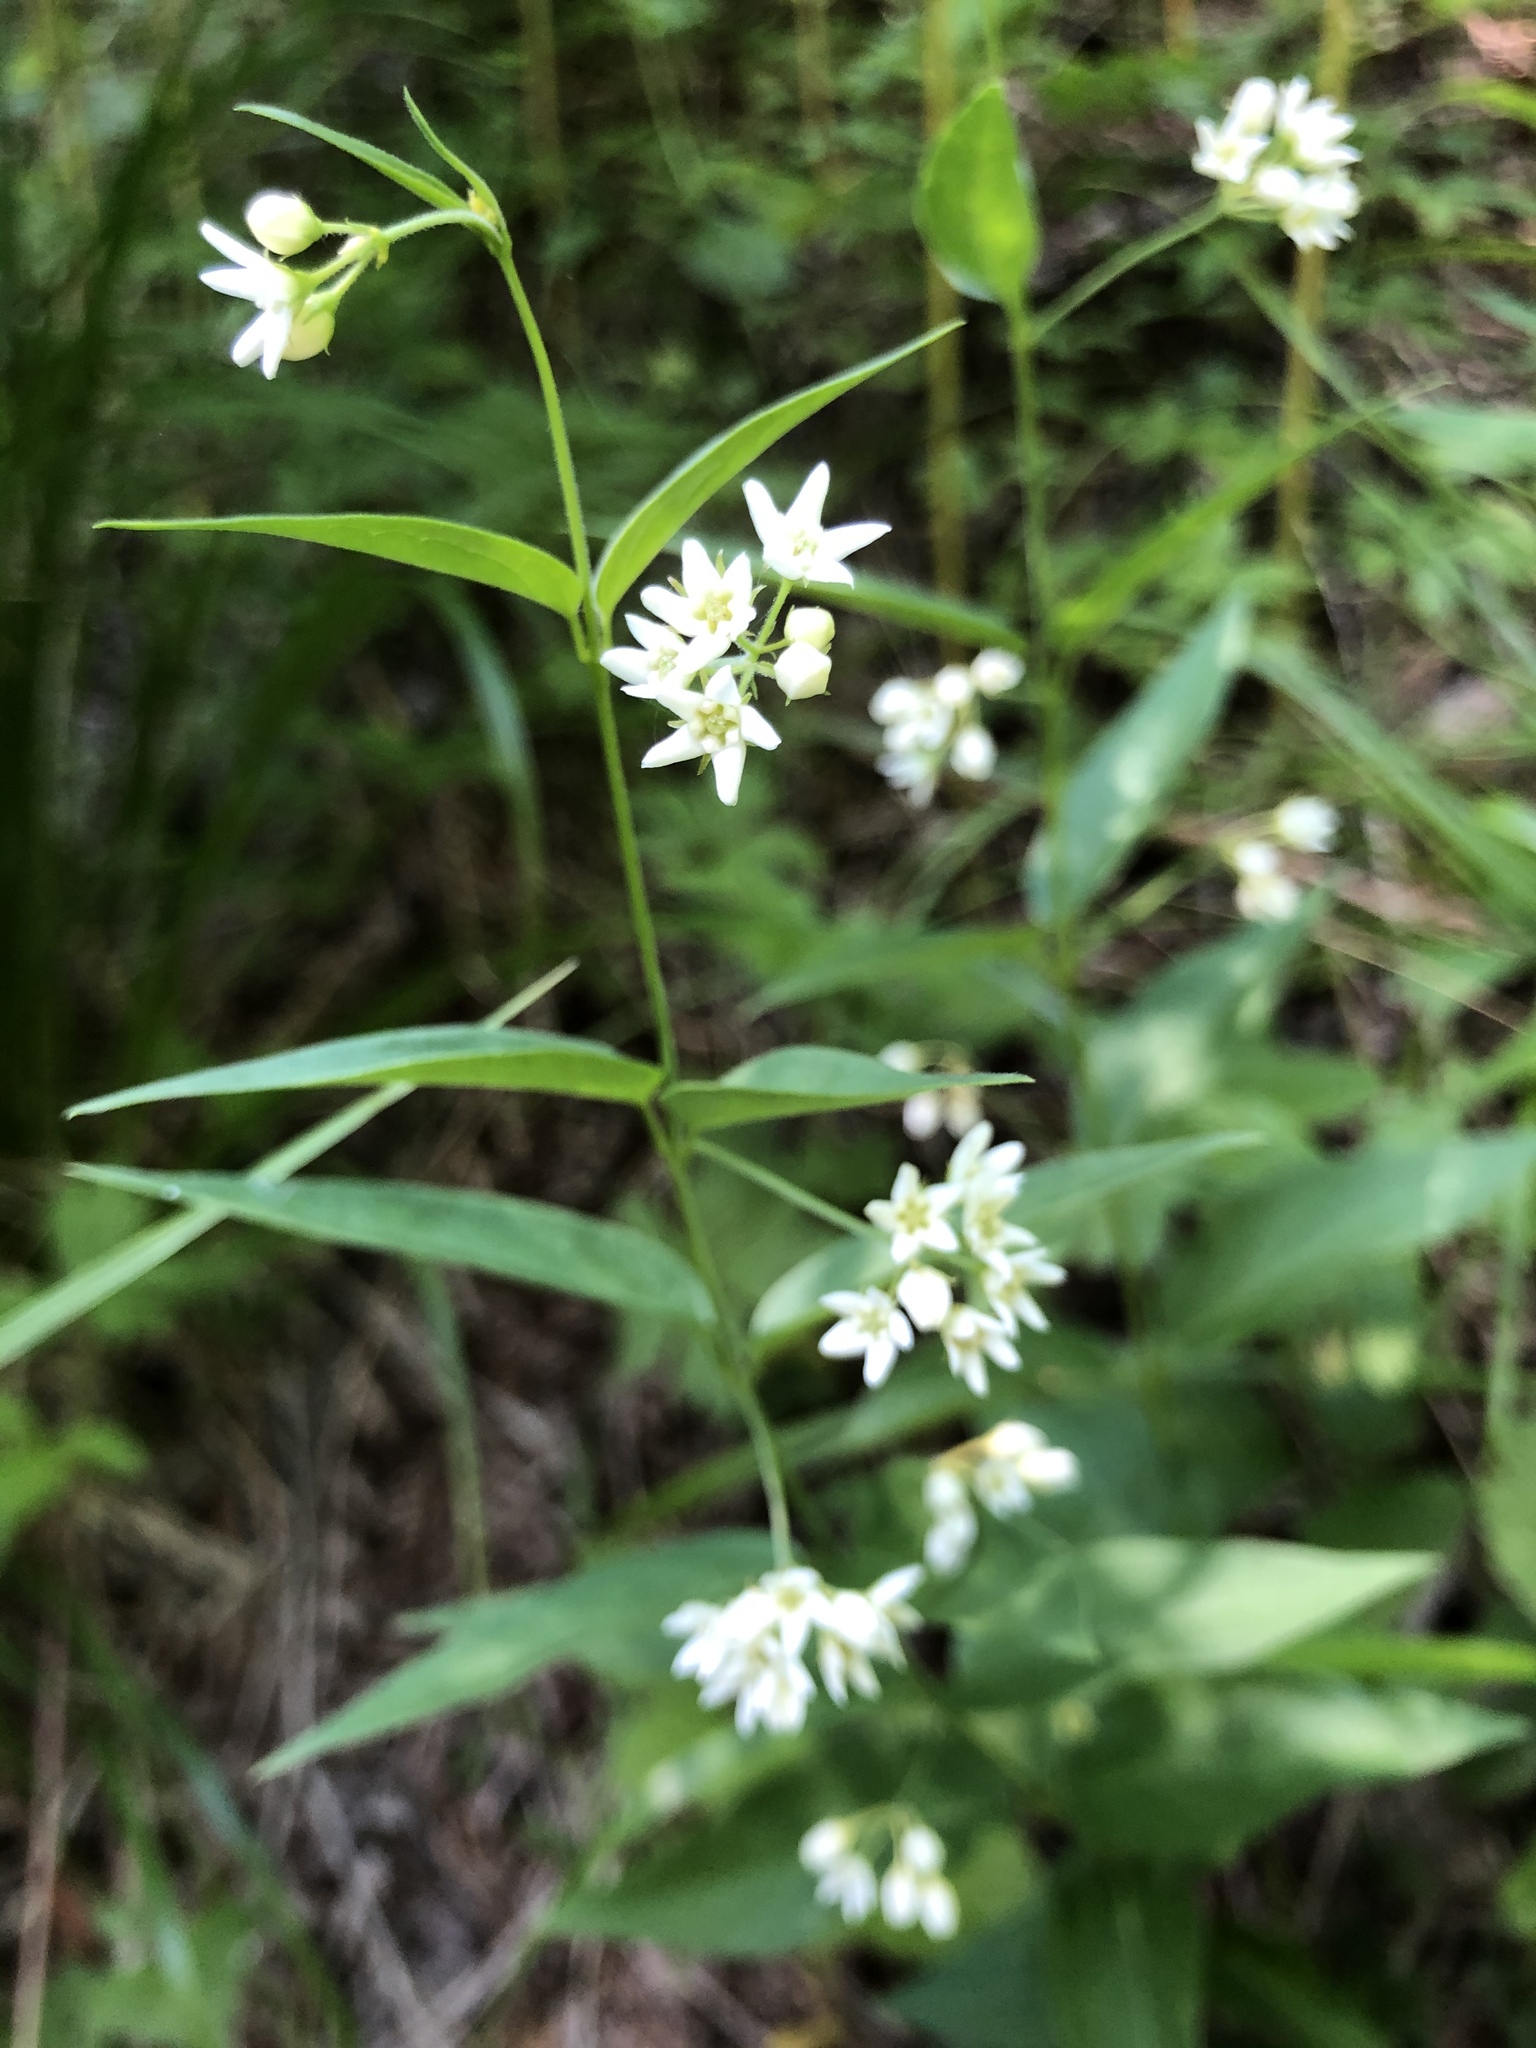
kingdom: Plantae
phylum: Tracheophyta
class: Magnoliopsida
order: Gentianales
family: Apocynaceae
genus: Vincetoxicum
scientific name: Vincetoxicum hirundinaria
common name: White swallowwort
